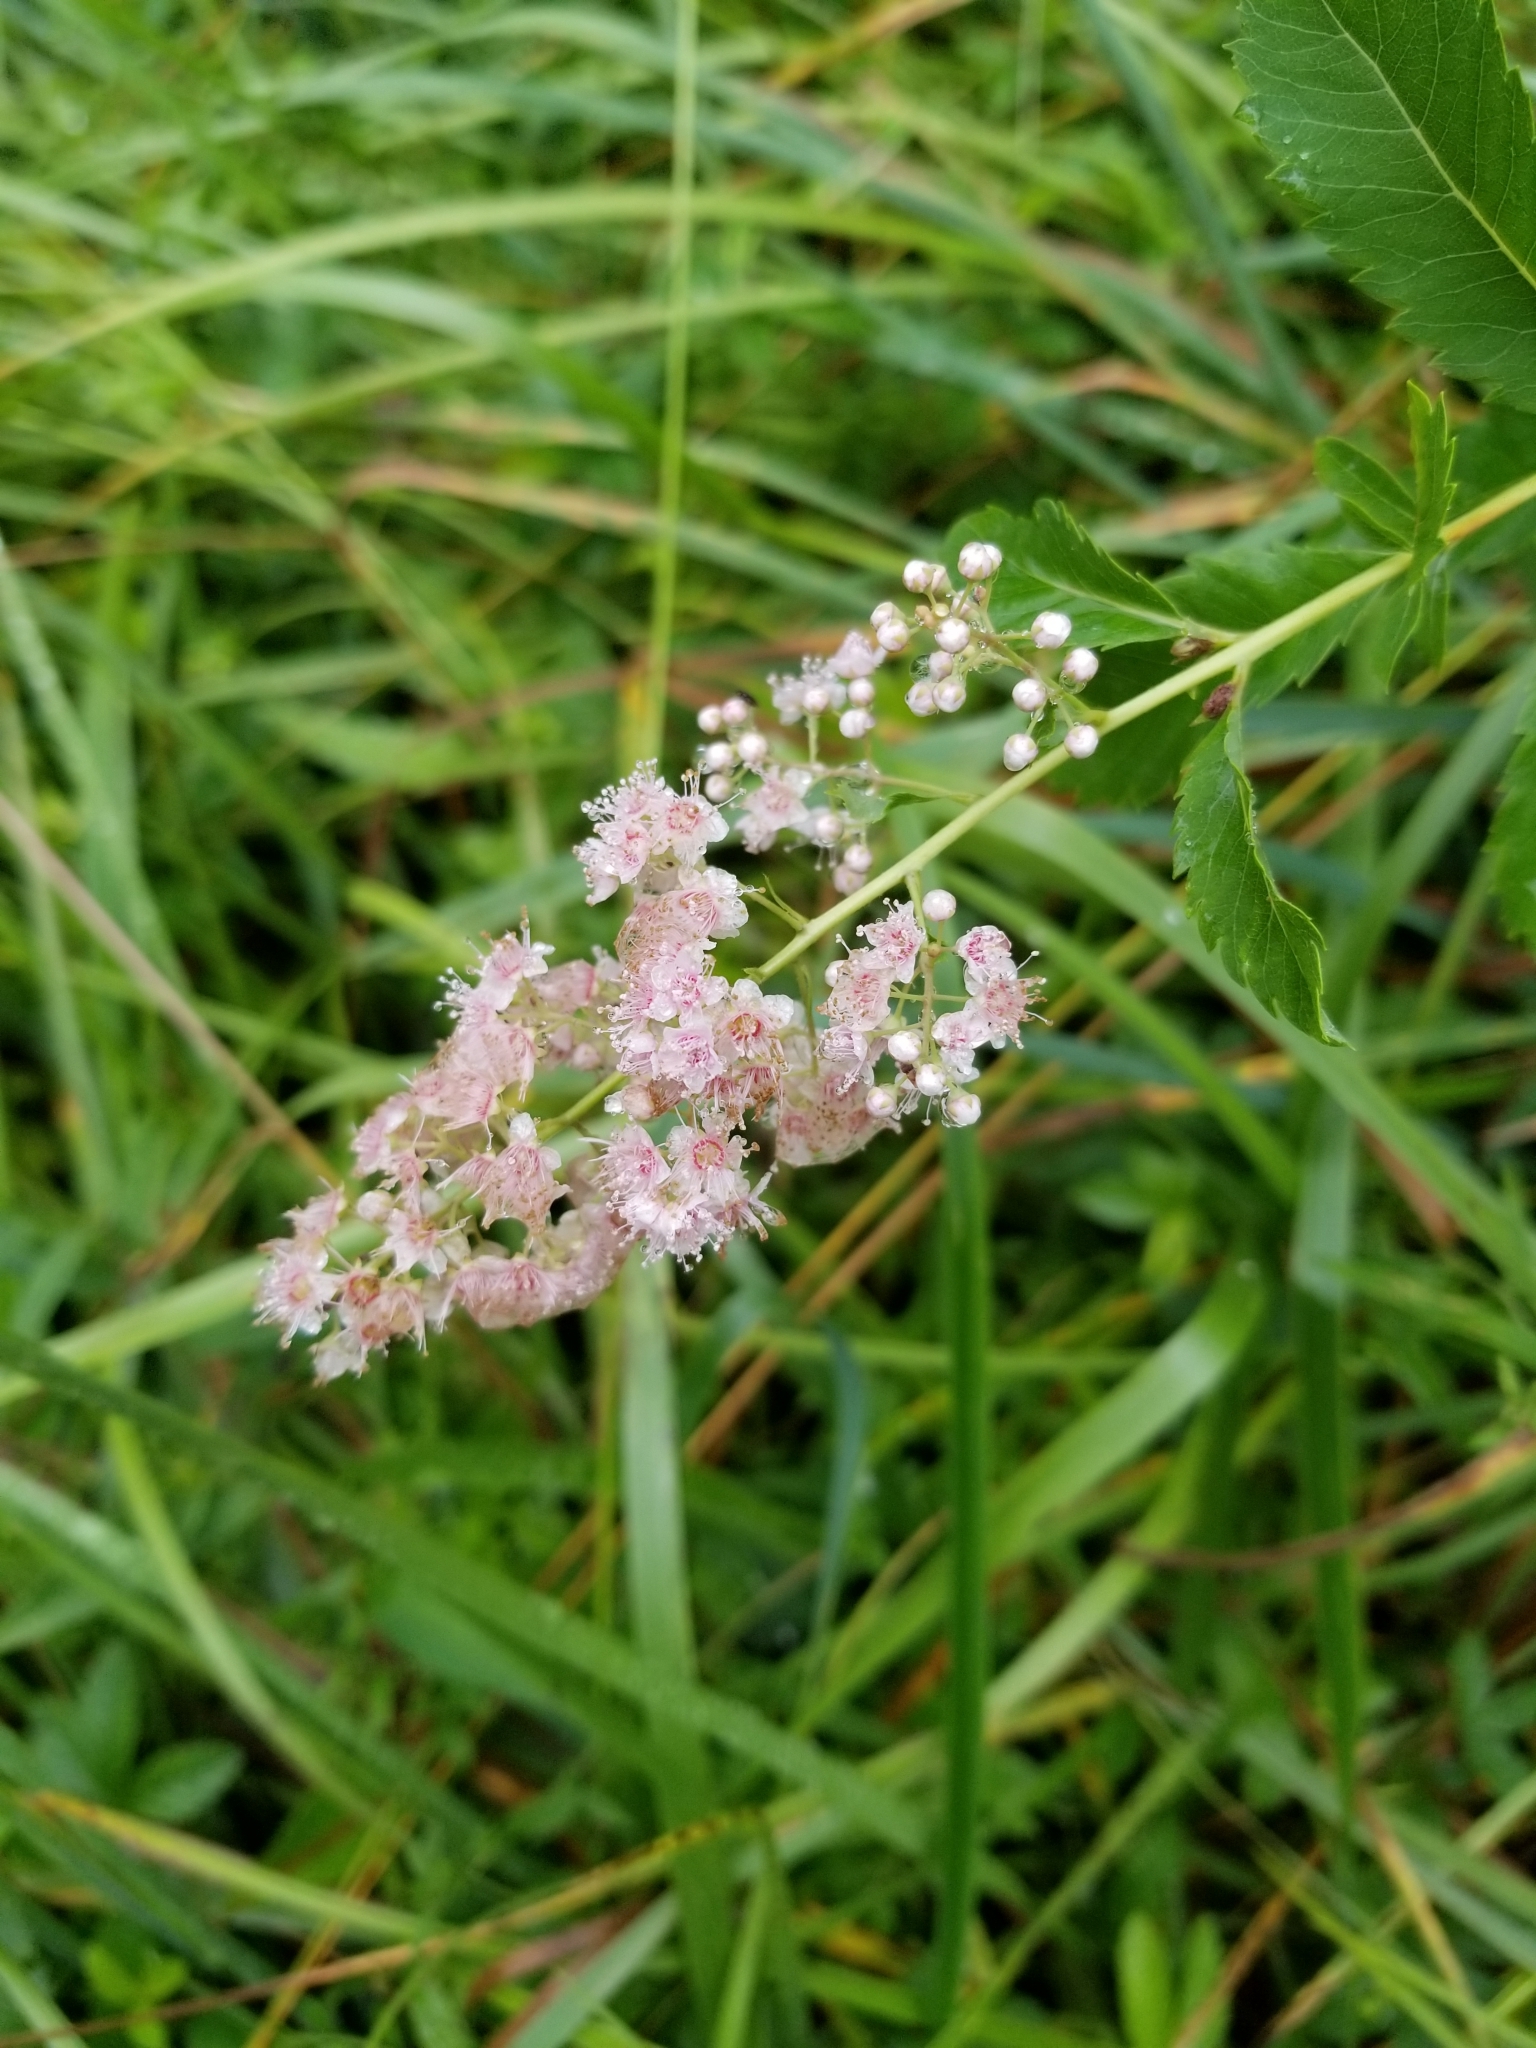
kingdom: Plantae
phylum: Tracheophyta
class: Magnoliopsida
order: Rosales
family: Rosaceae
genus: Spiraea
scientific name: Spiraea alba
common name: Pale bridewort
